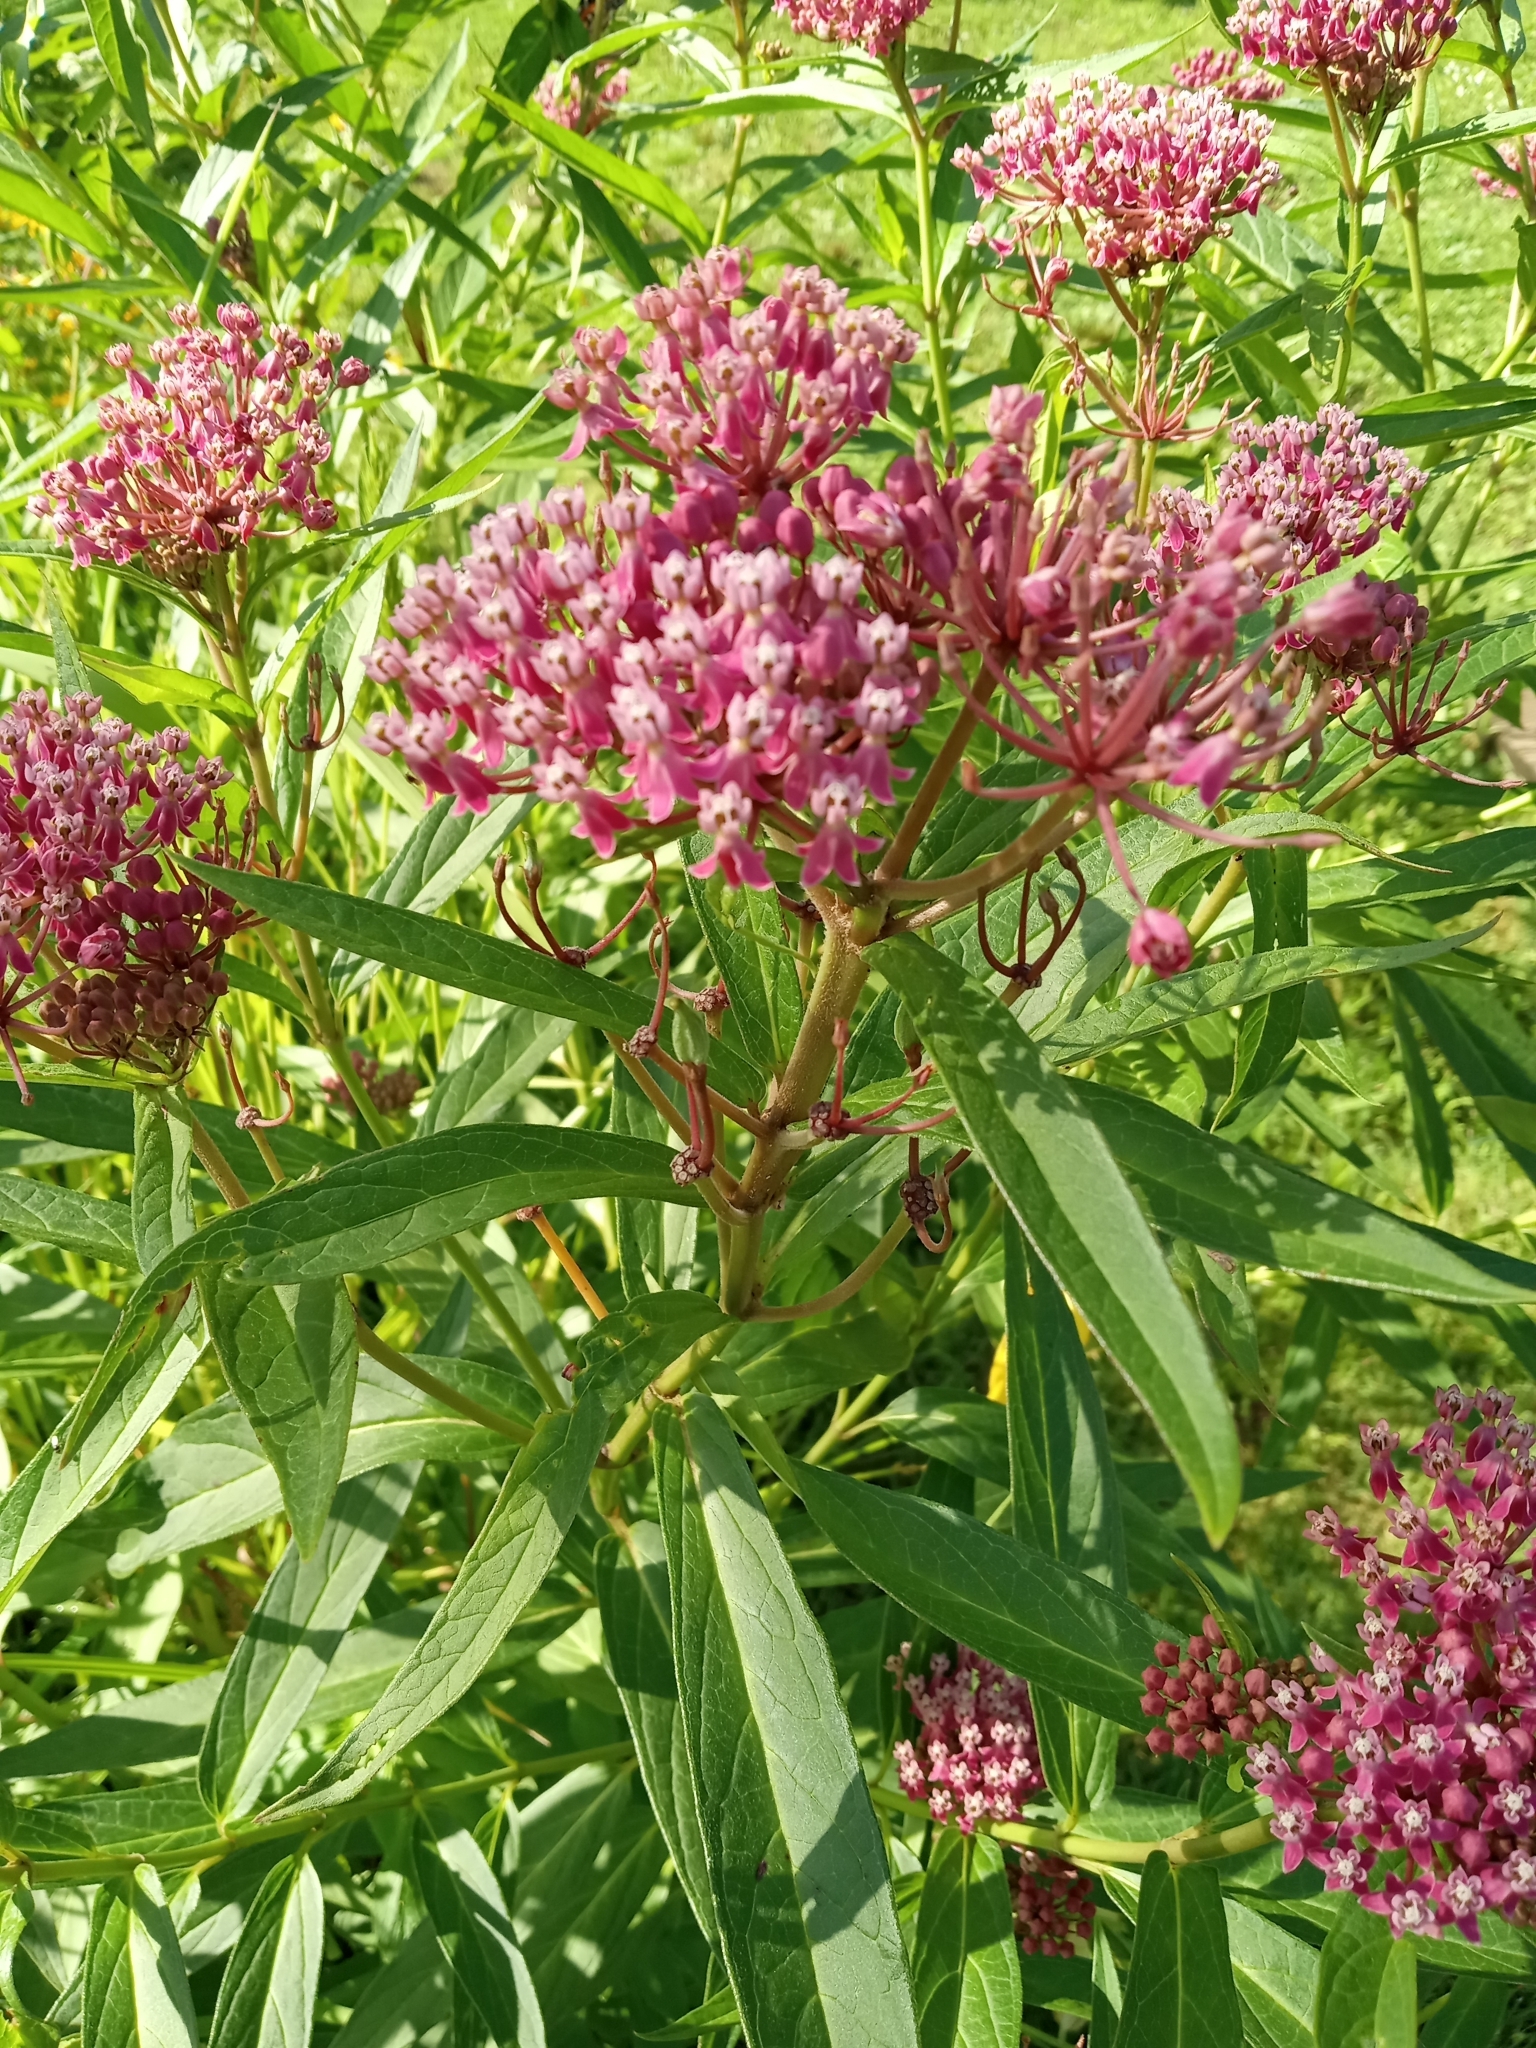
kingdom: Plantae
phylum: Tracheophyta
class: Magnoliopsida
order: Gentianales
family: Apocynaceae
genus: Asclepias
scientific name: Asclepias incarnata
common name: Swamp milkweed
